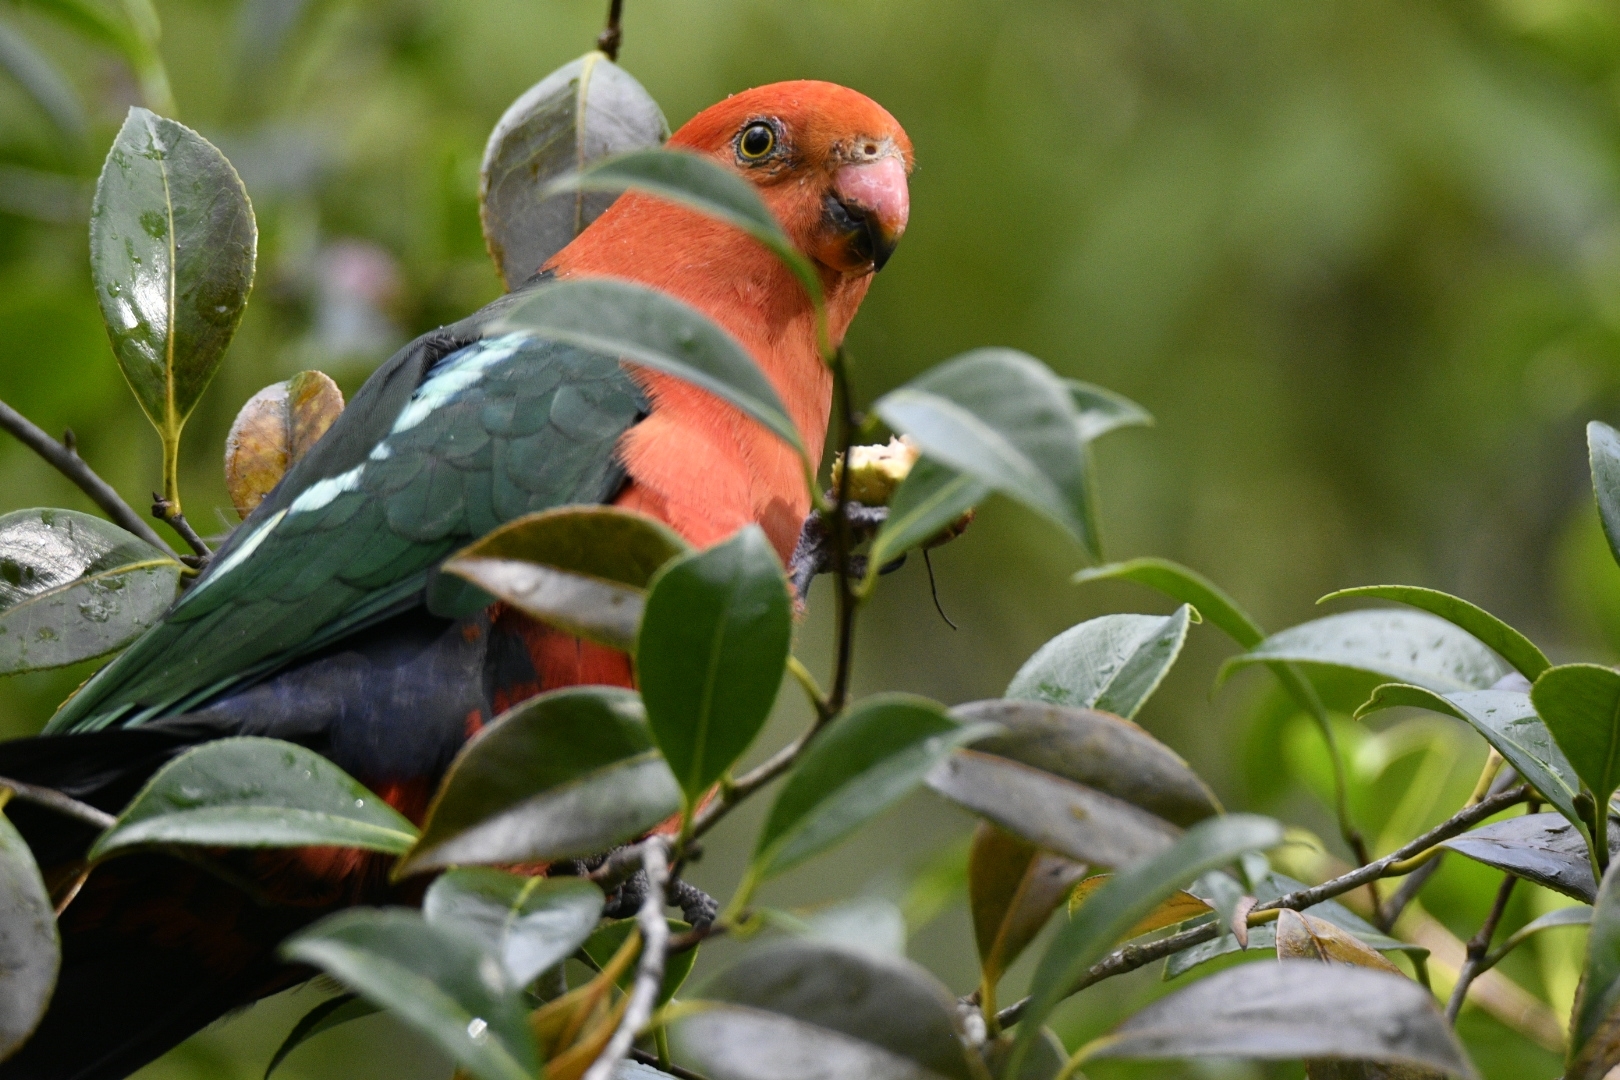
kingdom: Animalia
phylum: Chordata
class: Aves
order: Psittaciformes
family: Psittacidae
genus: Alisterus
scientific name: Alisterus scapularis
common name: Australian king parrot
